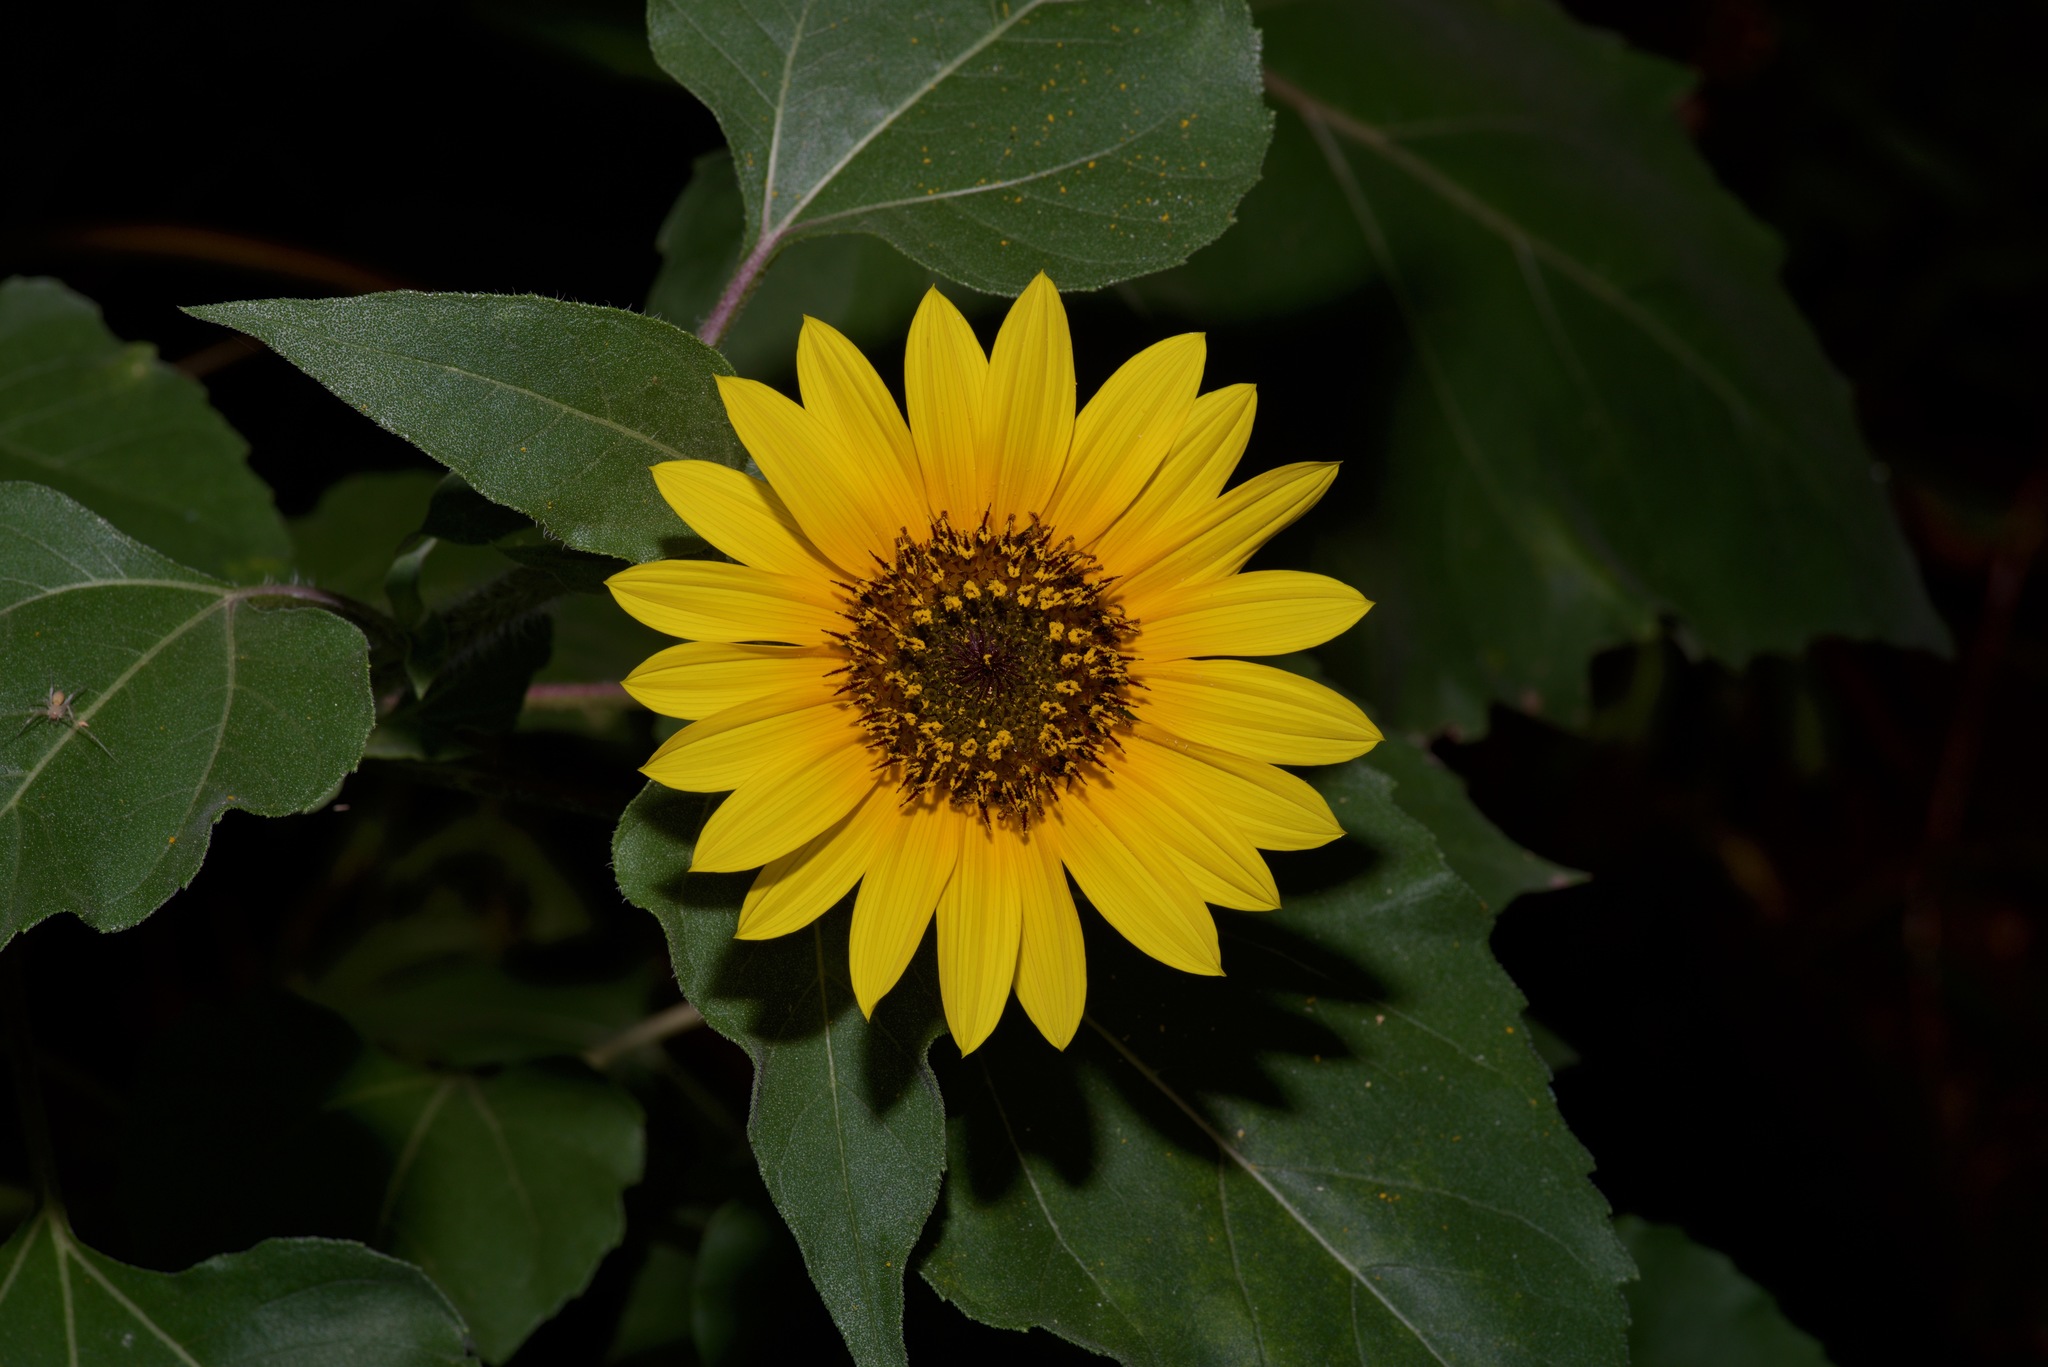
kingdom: Plantae
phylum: Tracheophyta
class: Magnoliopsida
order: Asterales
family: Asteraceae
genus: Helianthus
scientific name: Helianthus annuus
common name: Sunflower
